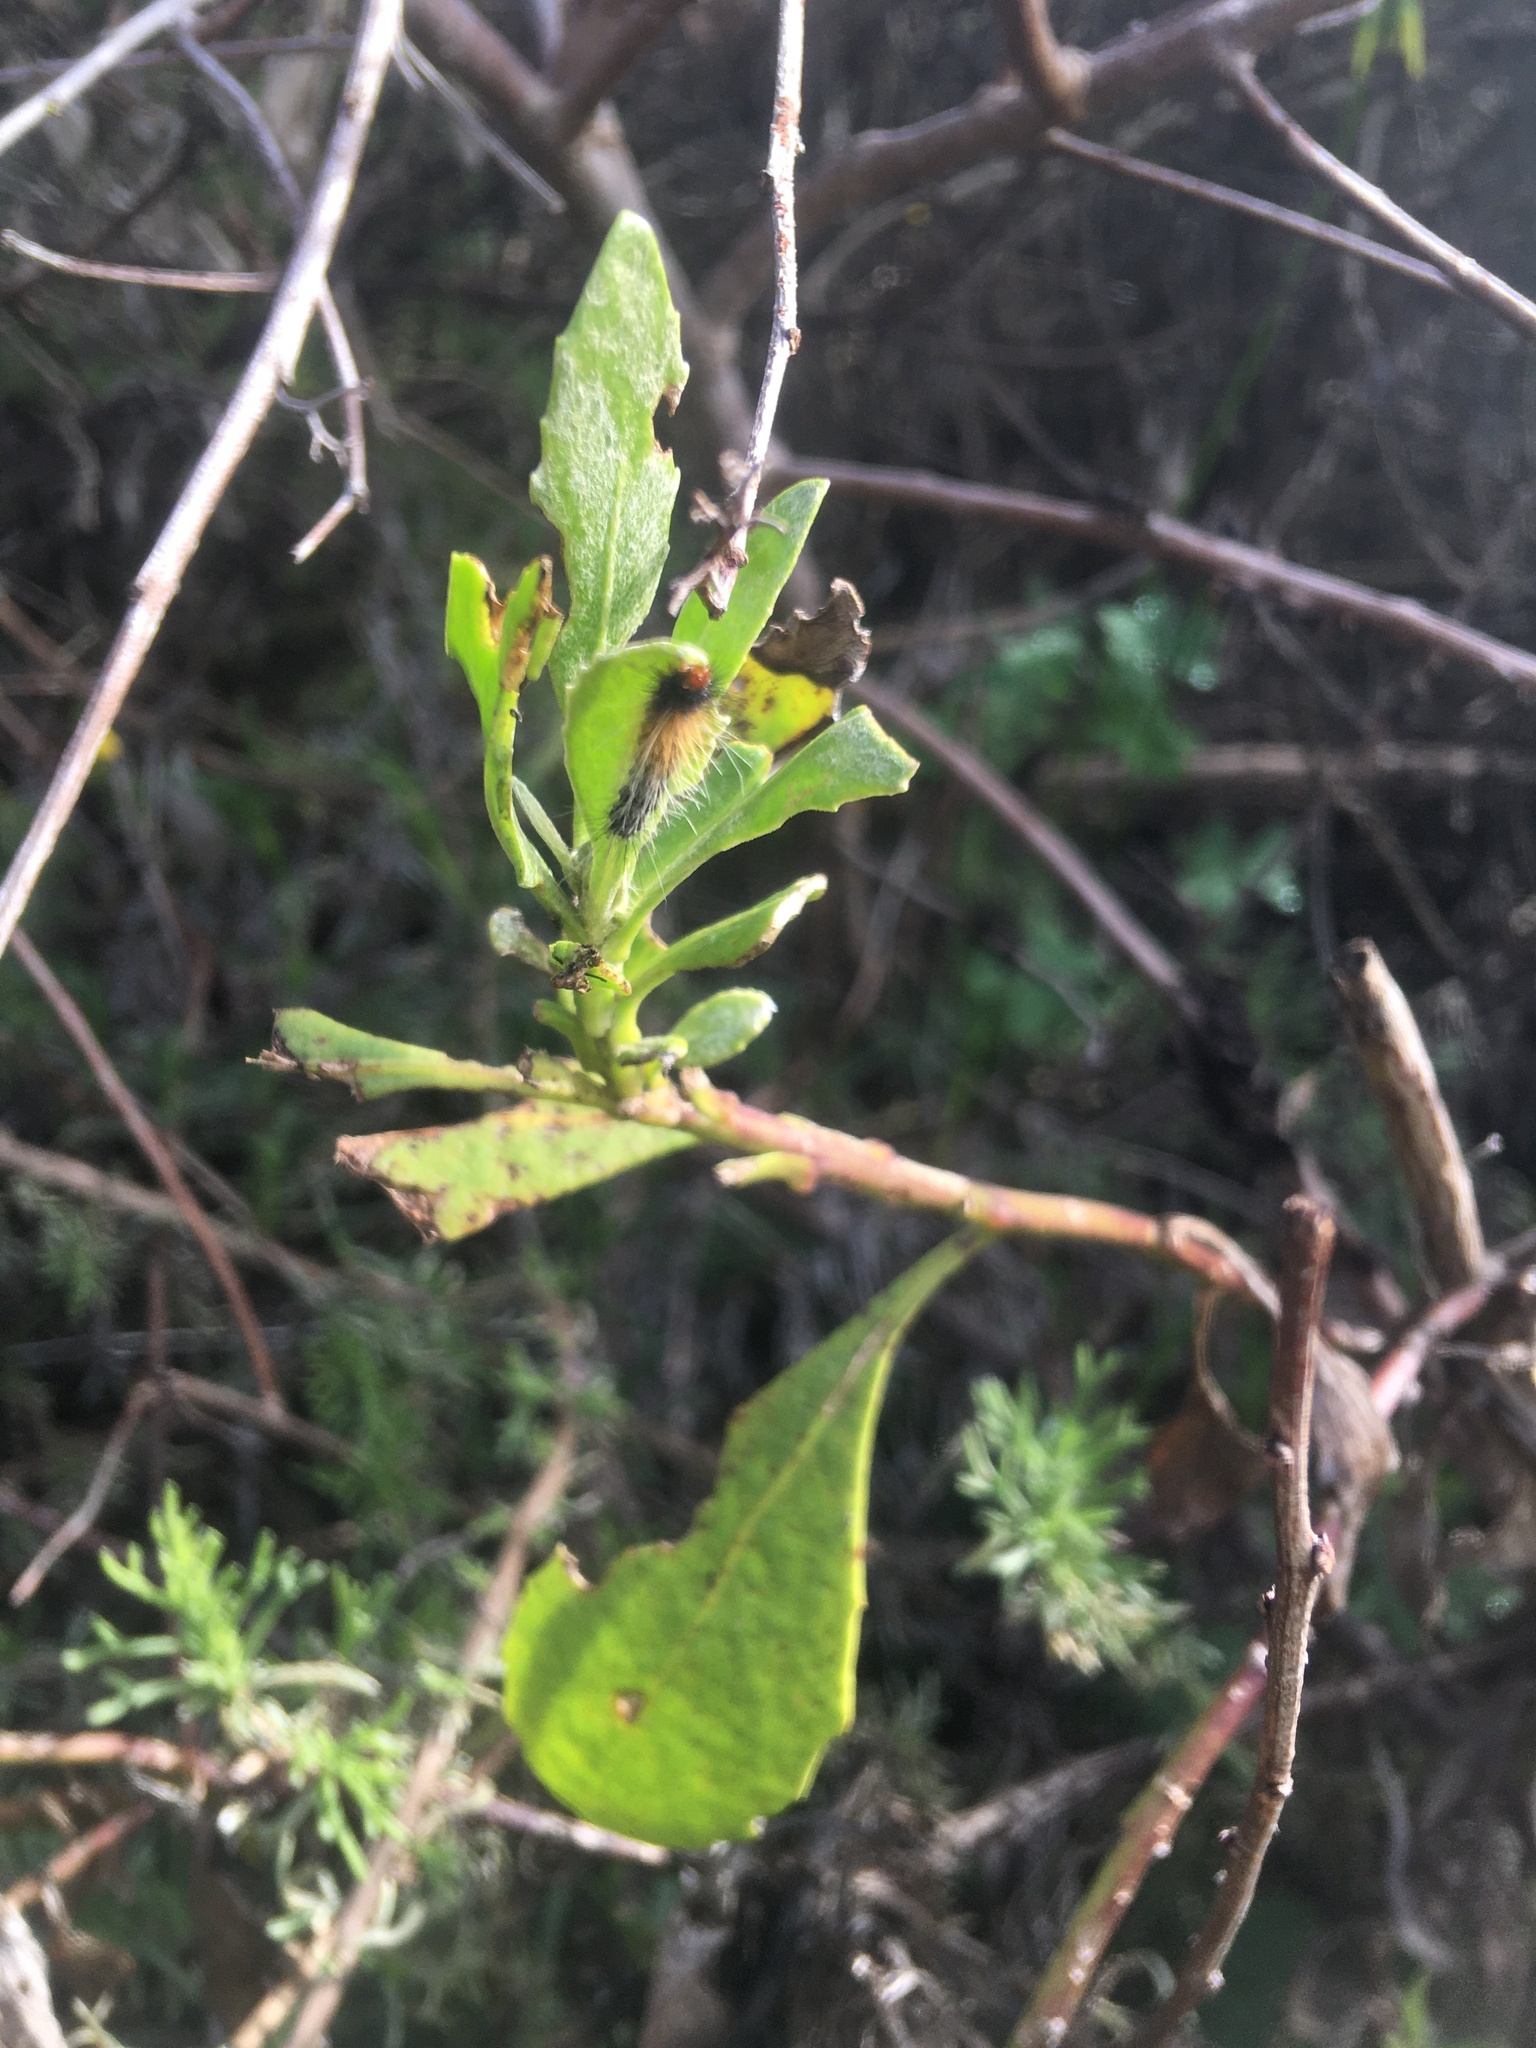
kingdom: Animalia
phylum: Arthropoda
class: Insecta
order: Lepidoptera
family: Erebidae
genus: Rhodogastria
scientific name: Rhodogastria amasis
